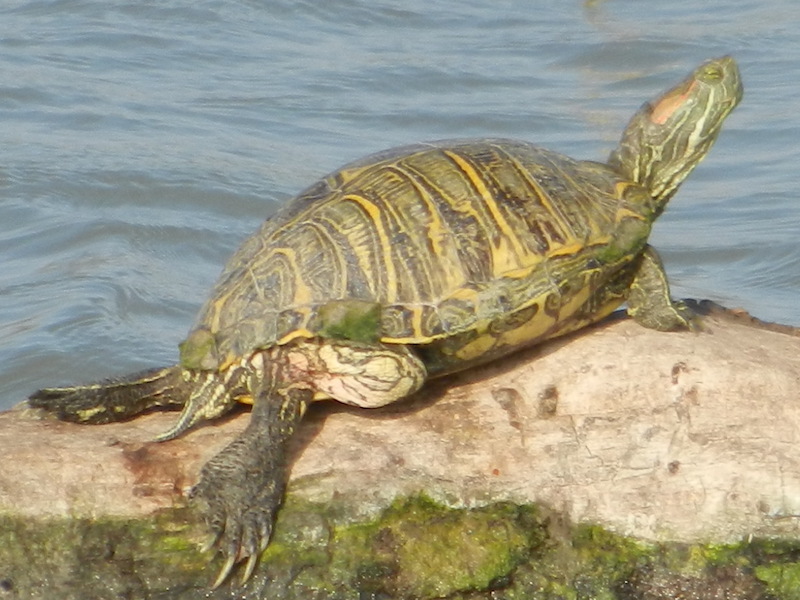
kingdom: Animalia
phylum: Chordata
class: Testudines
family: Emydidae
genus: Trachemys
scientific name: Trachemys scripta
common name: Slider
